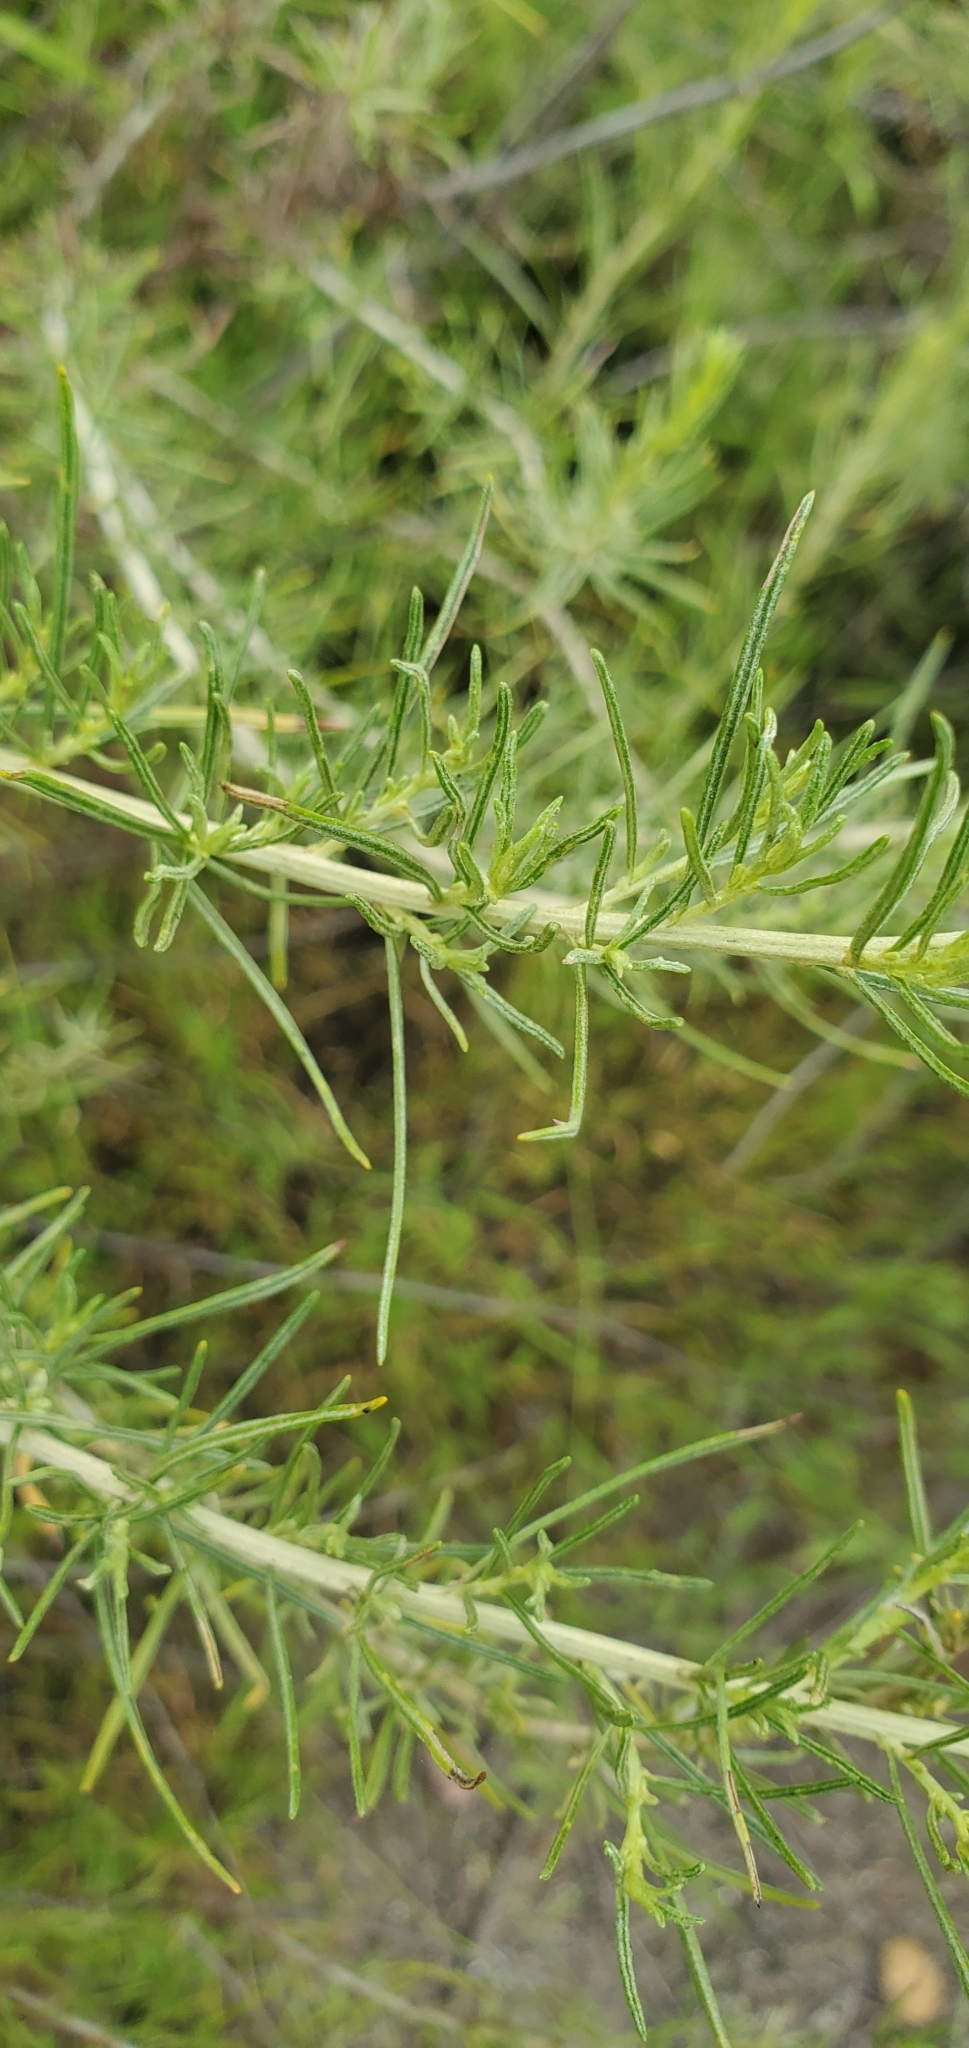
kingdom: Plantae
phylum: Tracheophyta
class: Magnoliopsida
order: Asterales
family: Asteraceae
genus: Artemisia
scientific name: Artemisia californica
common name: California sagebrush
